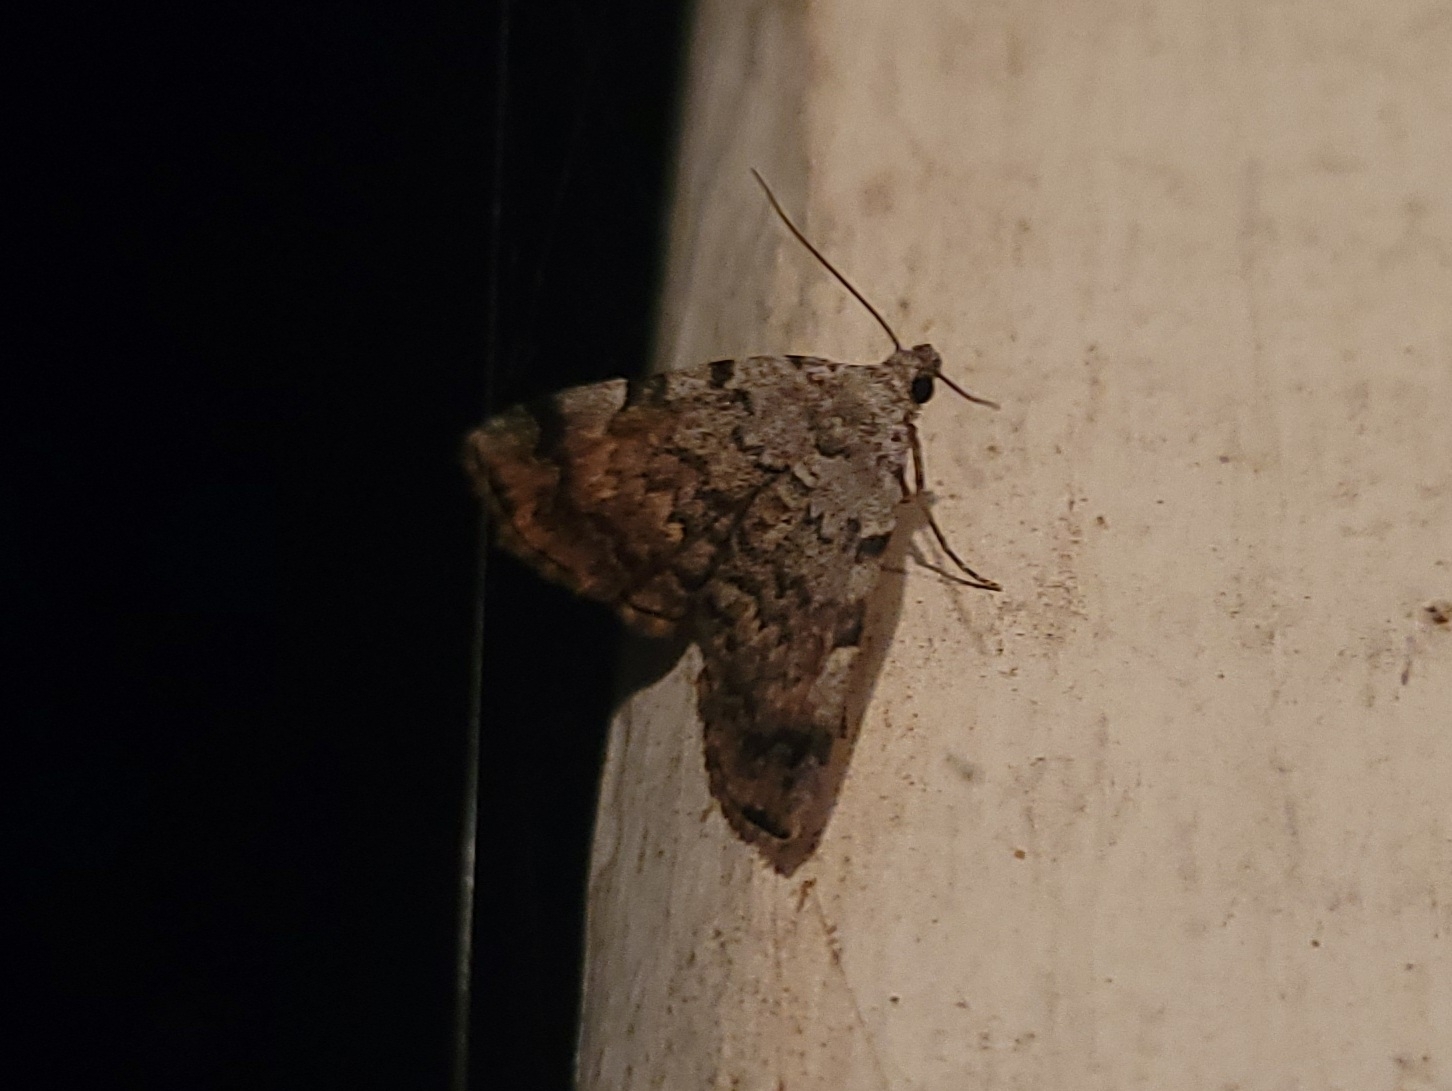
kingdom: Animalia
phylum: Arthropoda
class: Insecta
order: Lepidoptera
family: Erebidae
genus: Idia
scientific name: Idia americalis
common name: American idia moth
